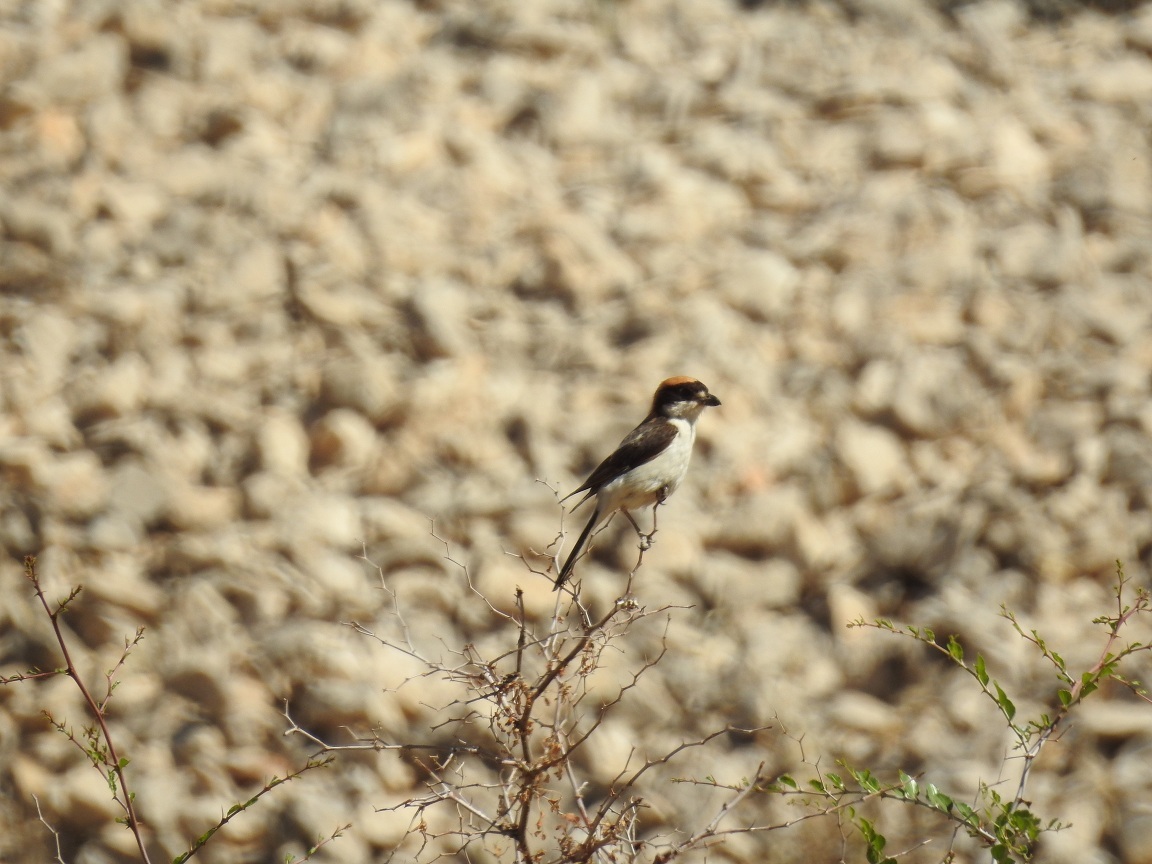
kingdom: Animalia
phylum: Chordata
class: Aves
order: Passeriformes
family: Laniidae
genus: Lanius
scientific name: Lanius senator
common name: Woodchat shrike
